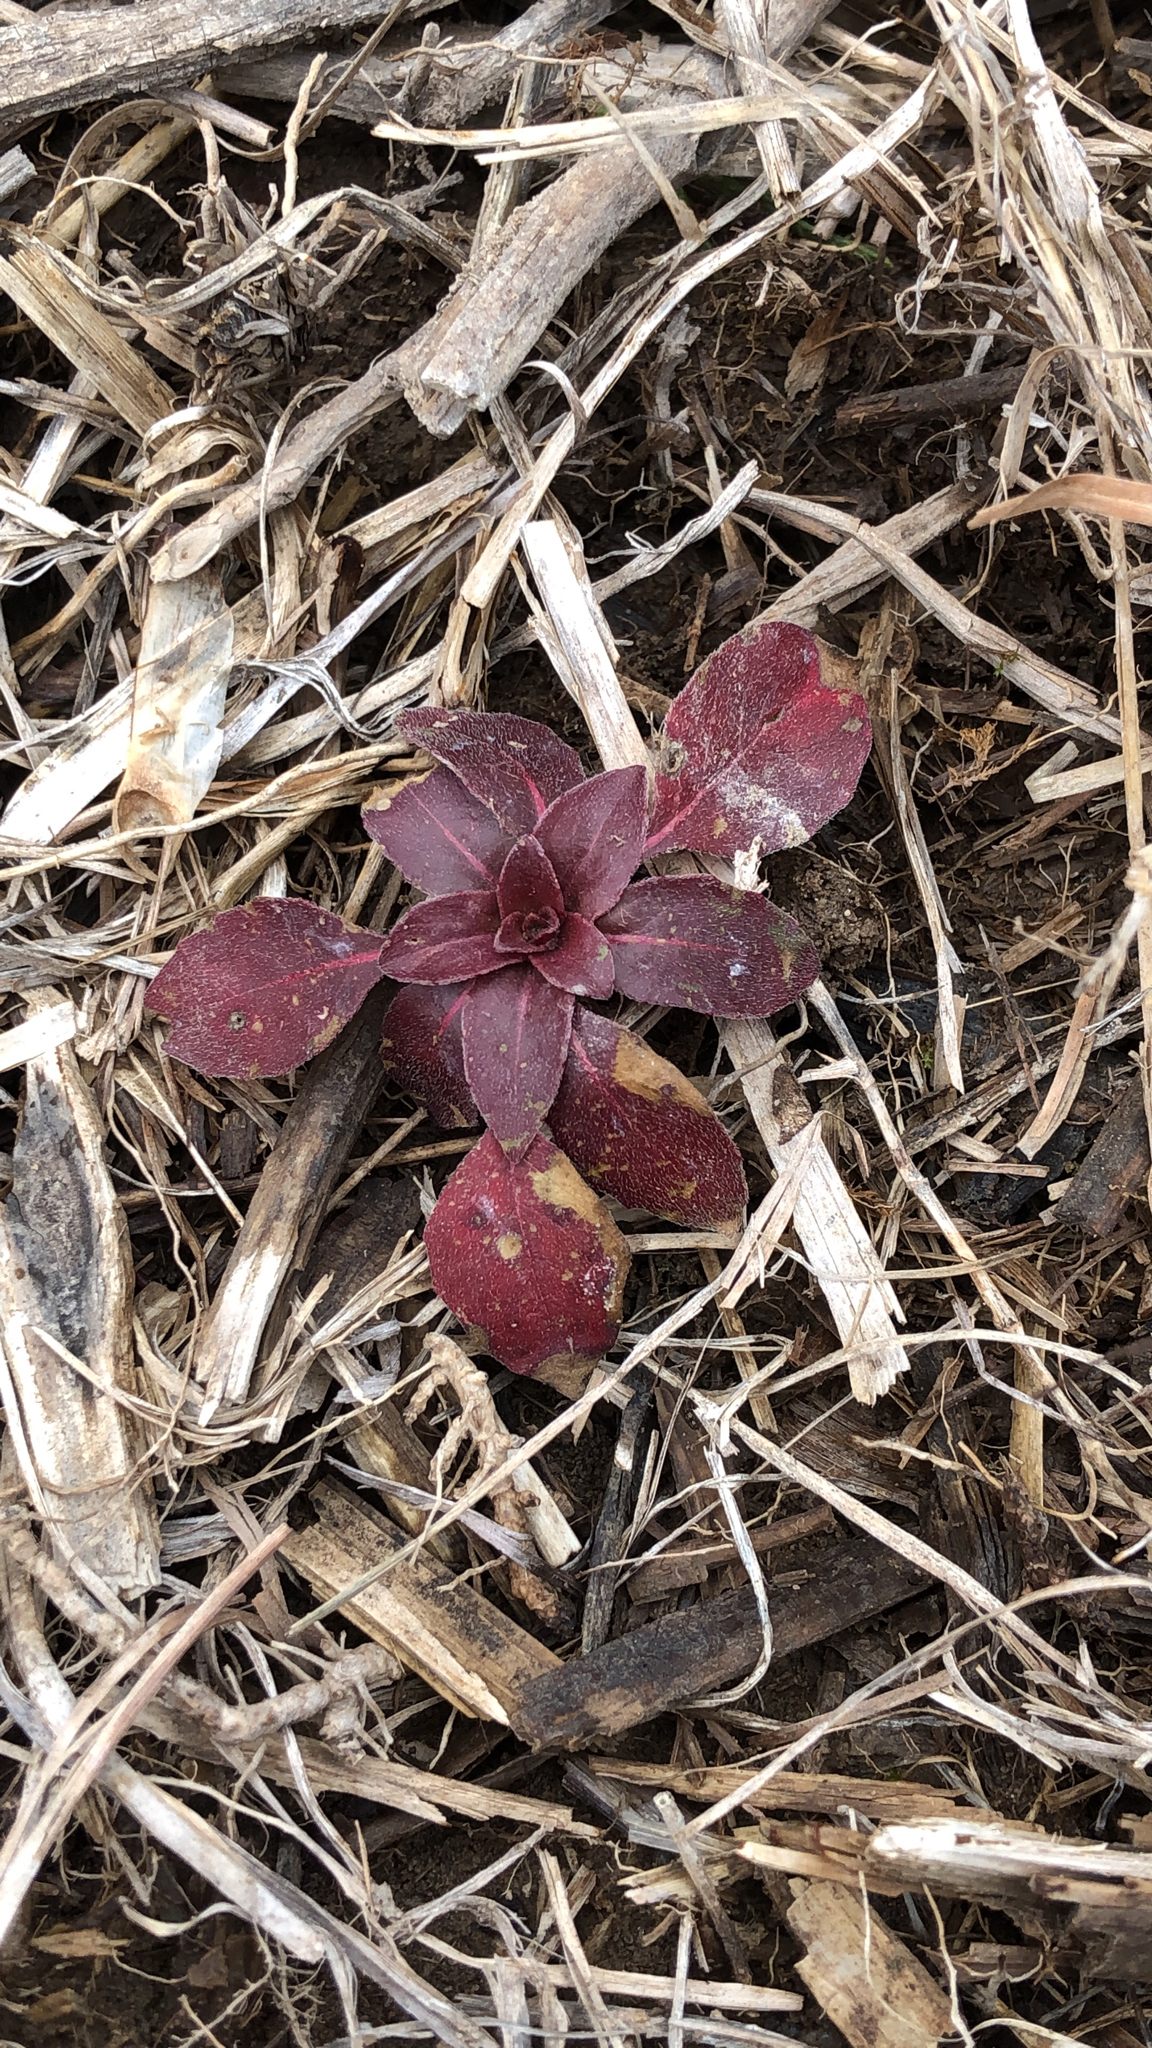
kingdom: Plantae
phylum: Tracheophyta
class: Magnoliopsida
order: Myrtales
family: Onagraceae
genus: Ludwigia
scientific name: Ludwigia palustris
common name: Hampshire-purslane
